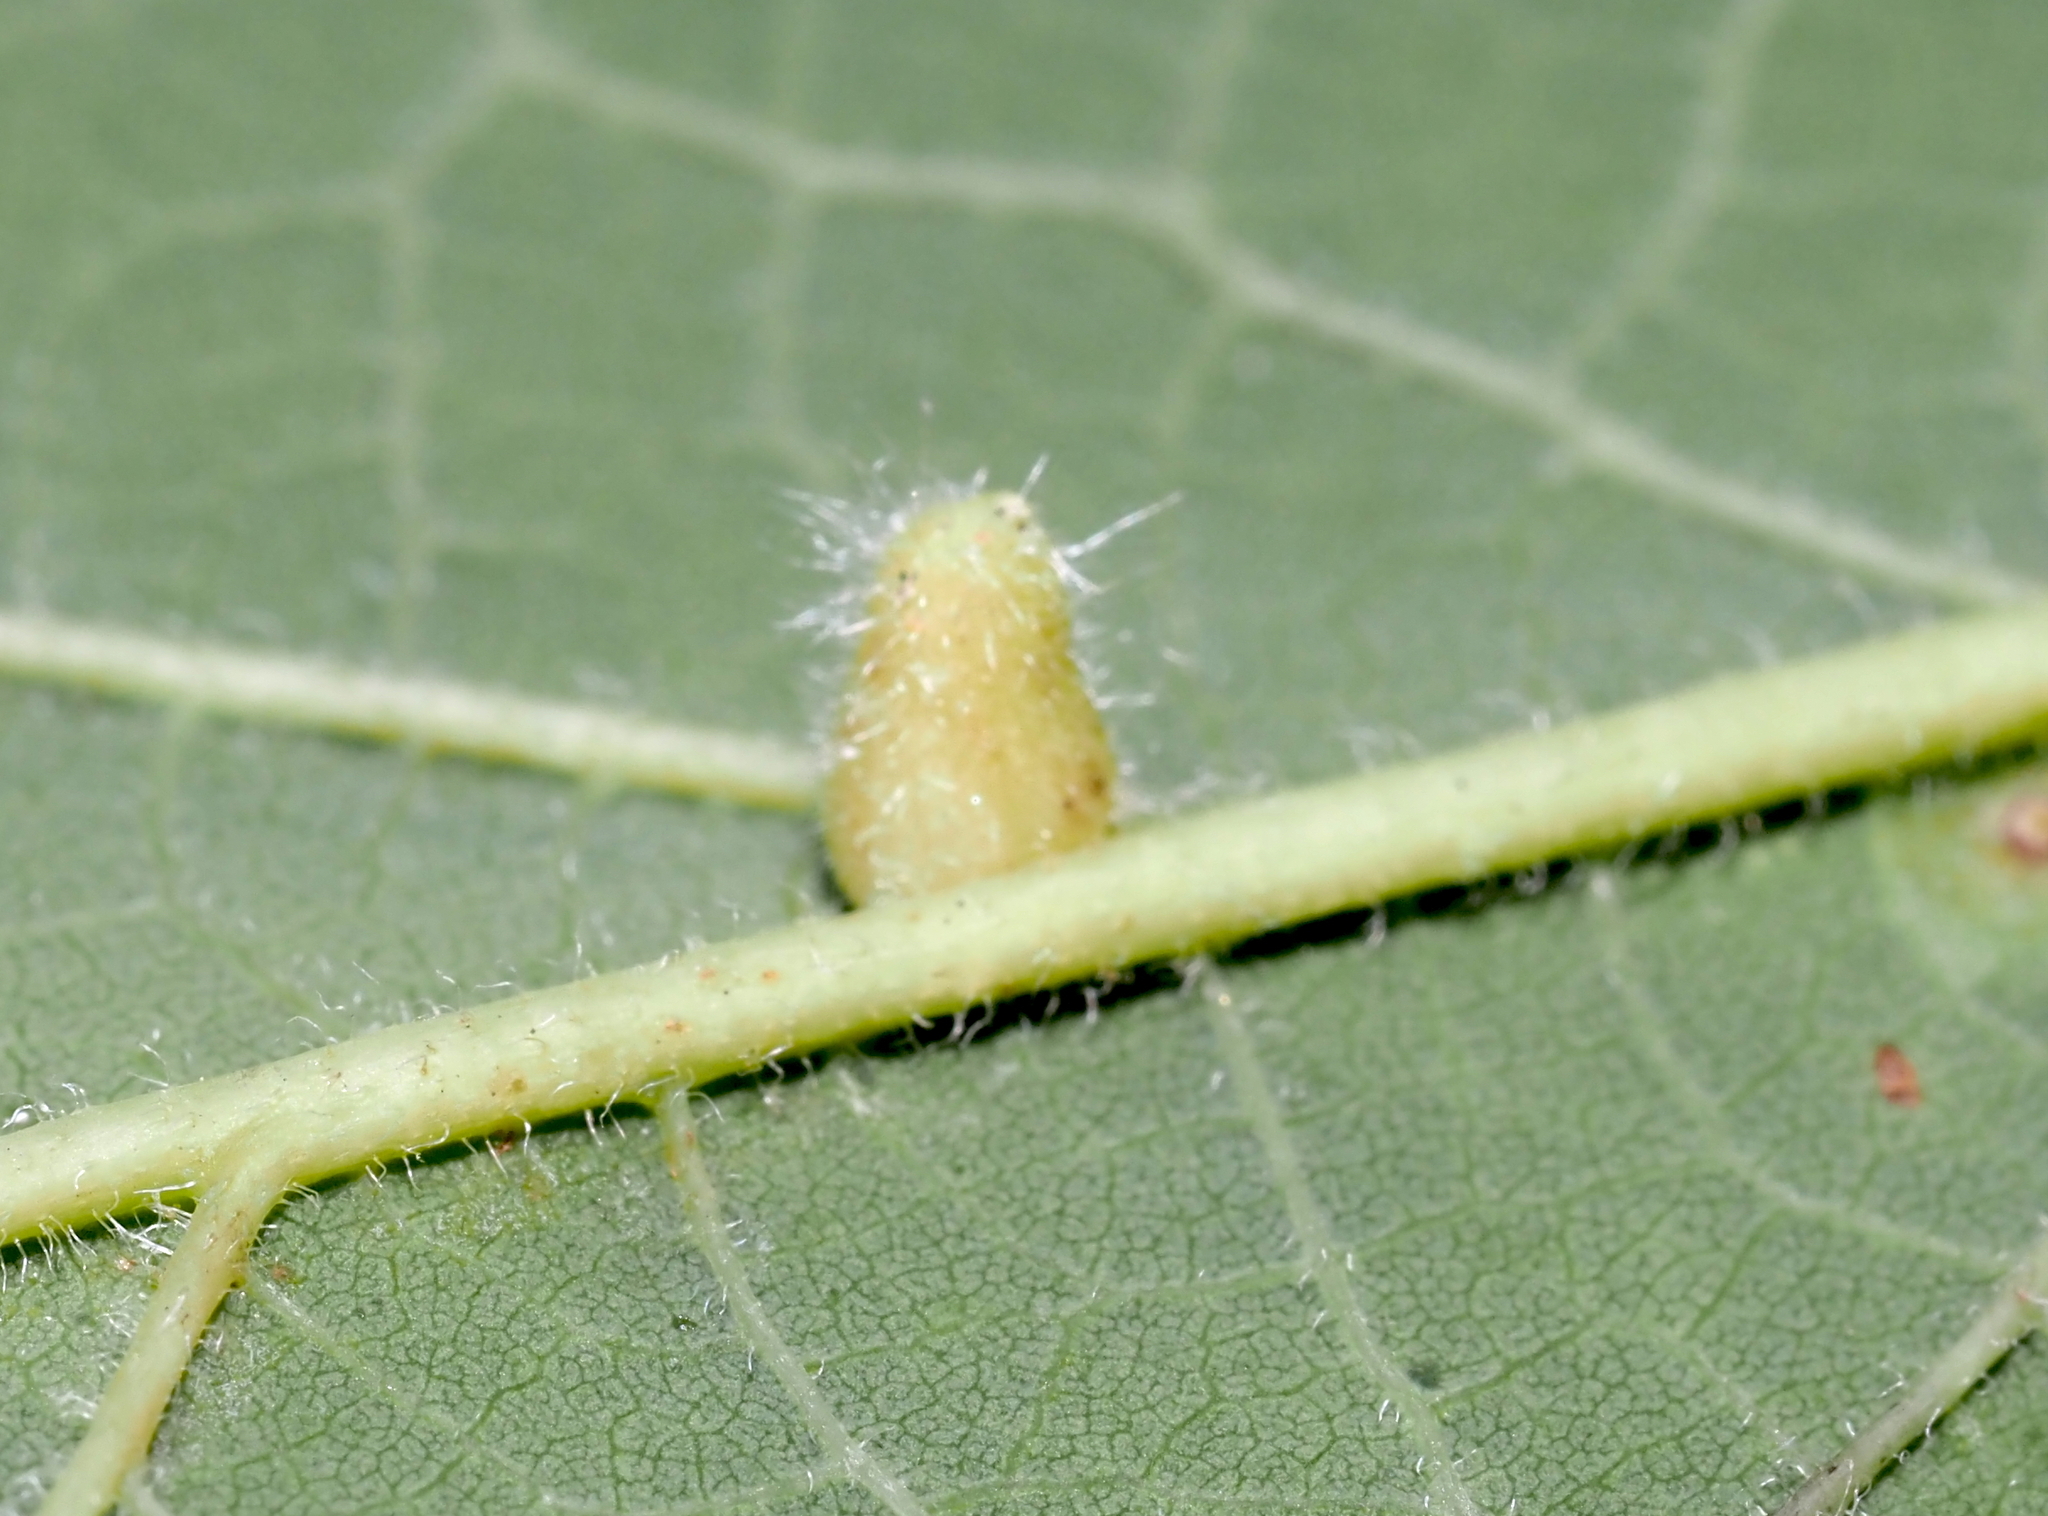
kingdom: Animalia
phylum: Arthropoda
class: Insecta
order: Diptera
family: Cecidomyiidae
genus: Celticecis
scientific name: Celticecis pyriformis
